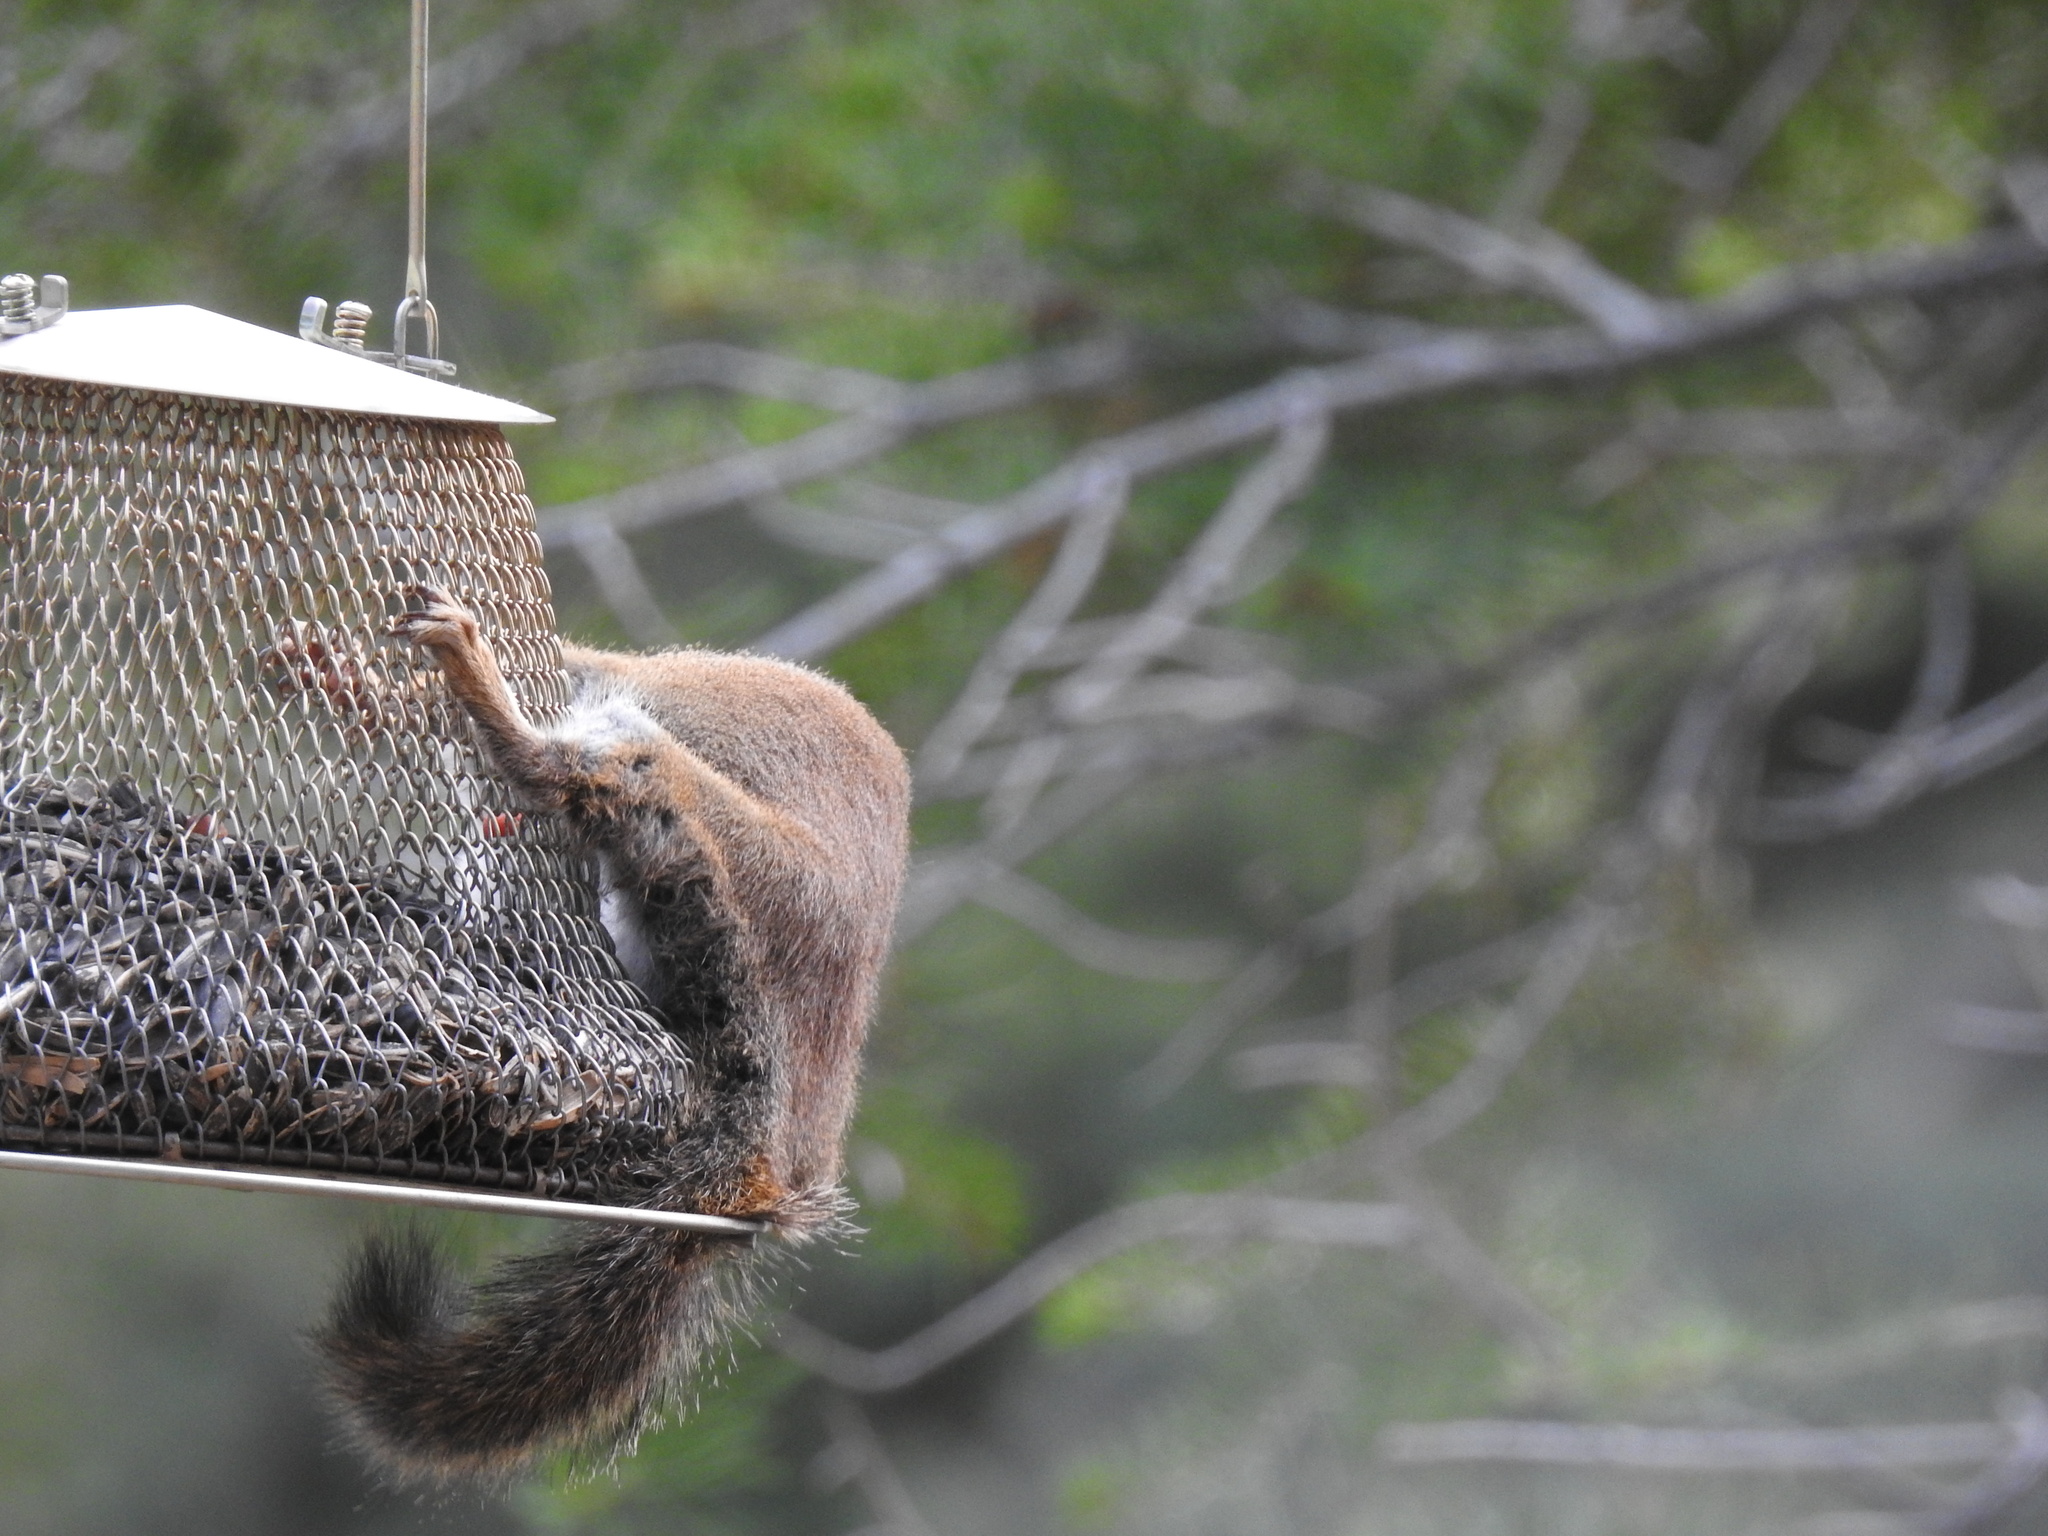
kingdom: Animalia
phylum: Chordata
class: Mammalia
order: Rodentia
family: Sciuridae
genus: Tamiasciurus
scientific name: Tamiasciurus hudsonicus
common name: Red squirrel
